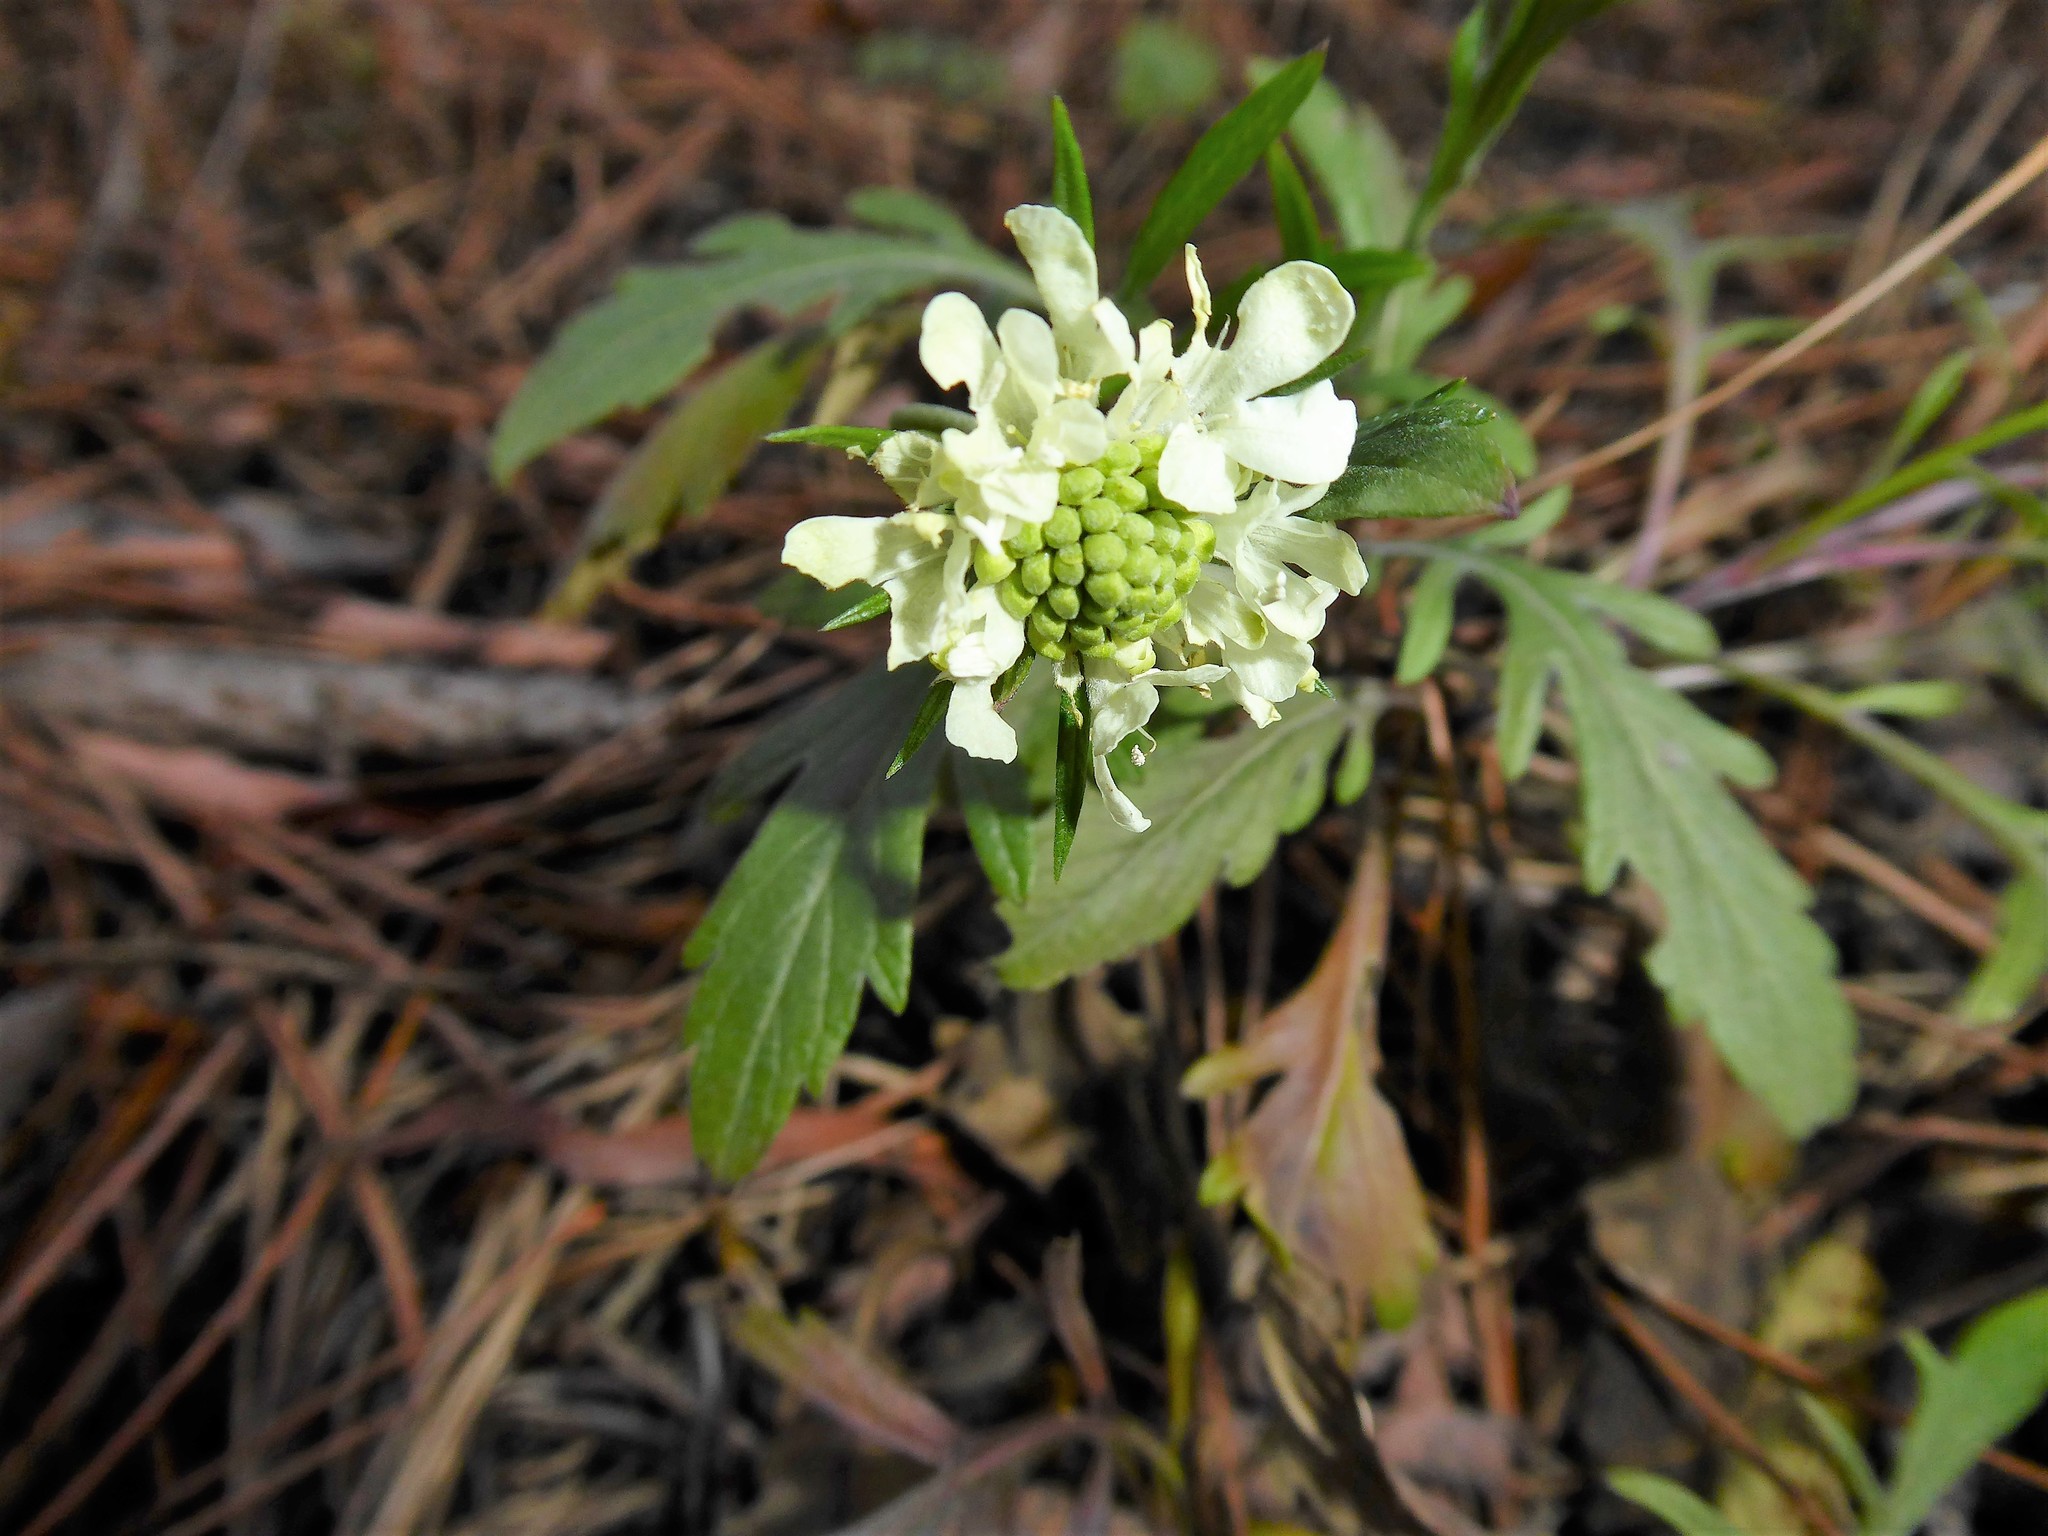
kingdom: Plantae
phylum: Tracheophyta
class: Magnoliopsida
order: Dipsacales
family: Caprifoliaceae
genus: Scabiosa
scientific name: Scabiosa ochroleuca
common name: Cream pincushions
